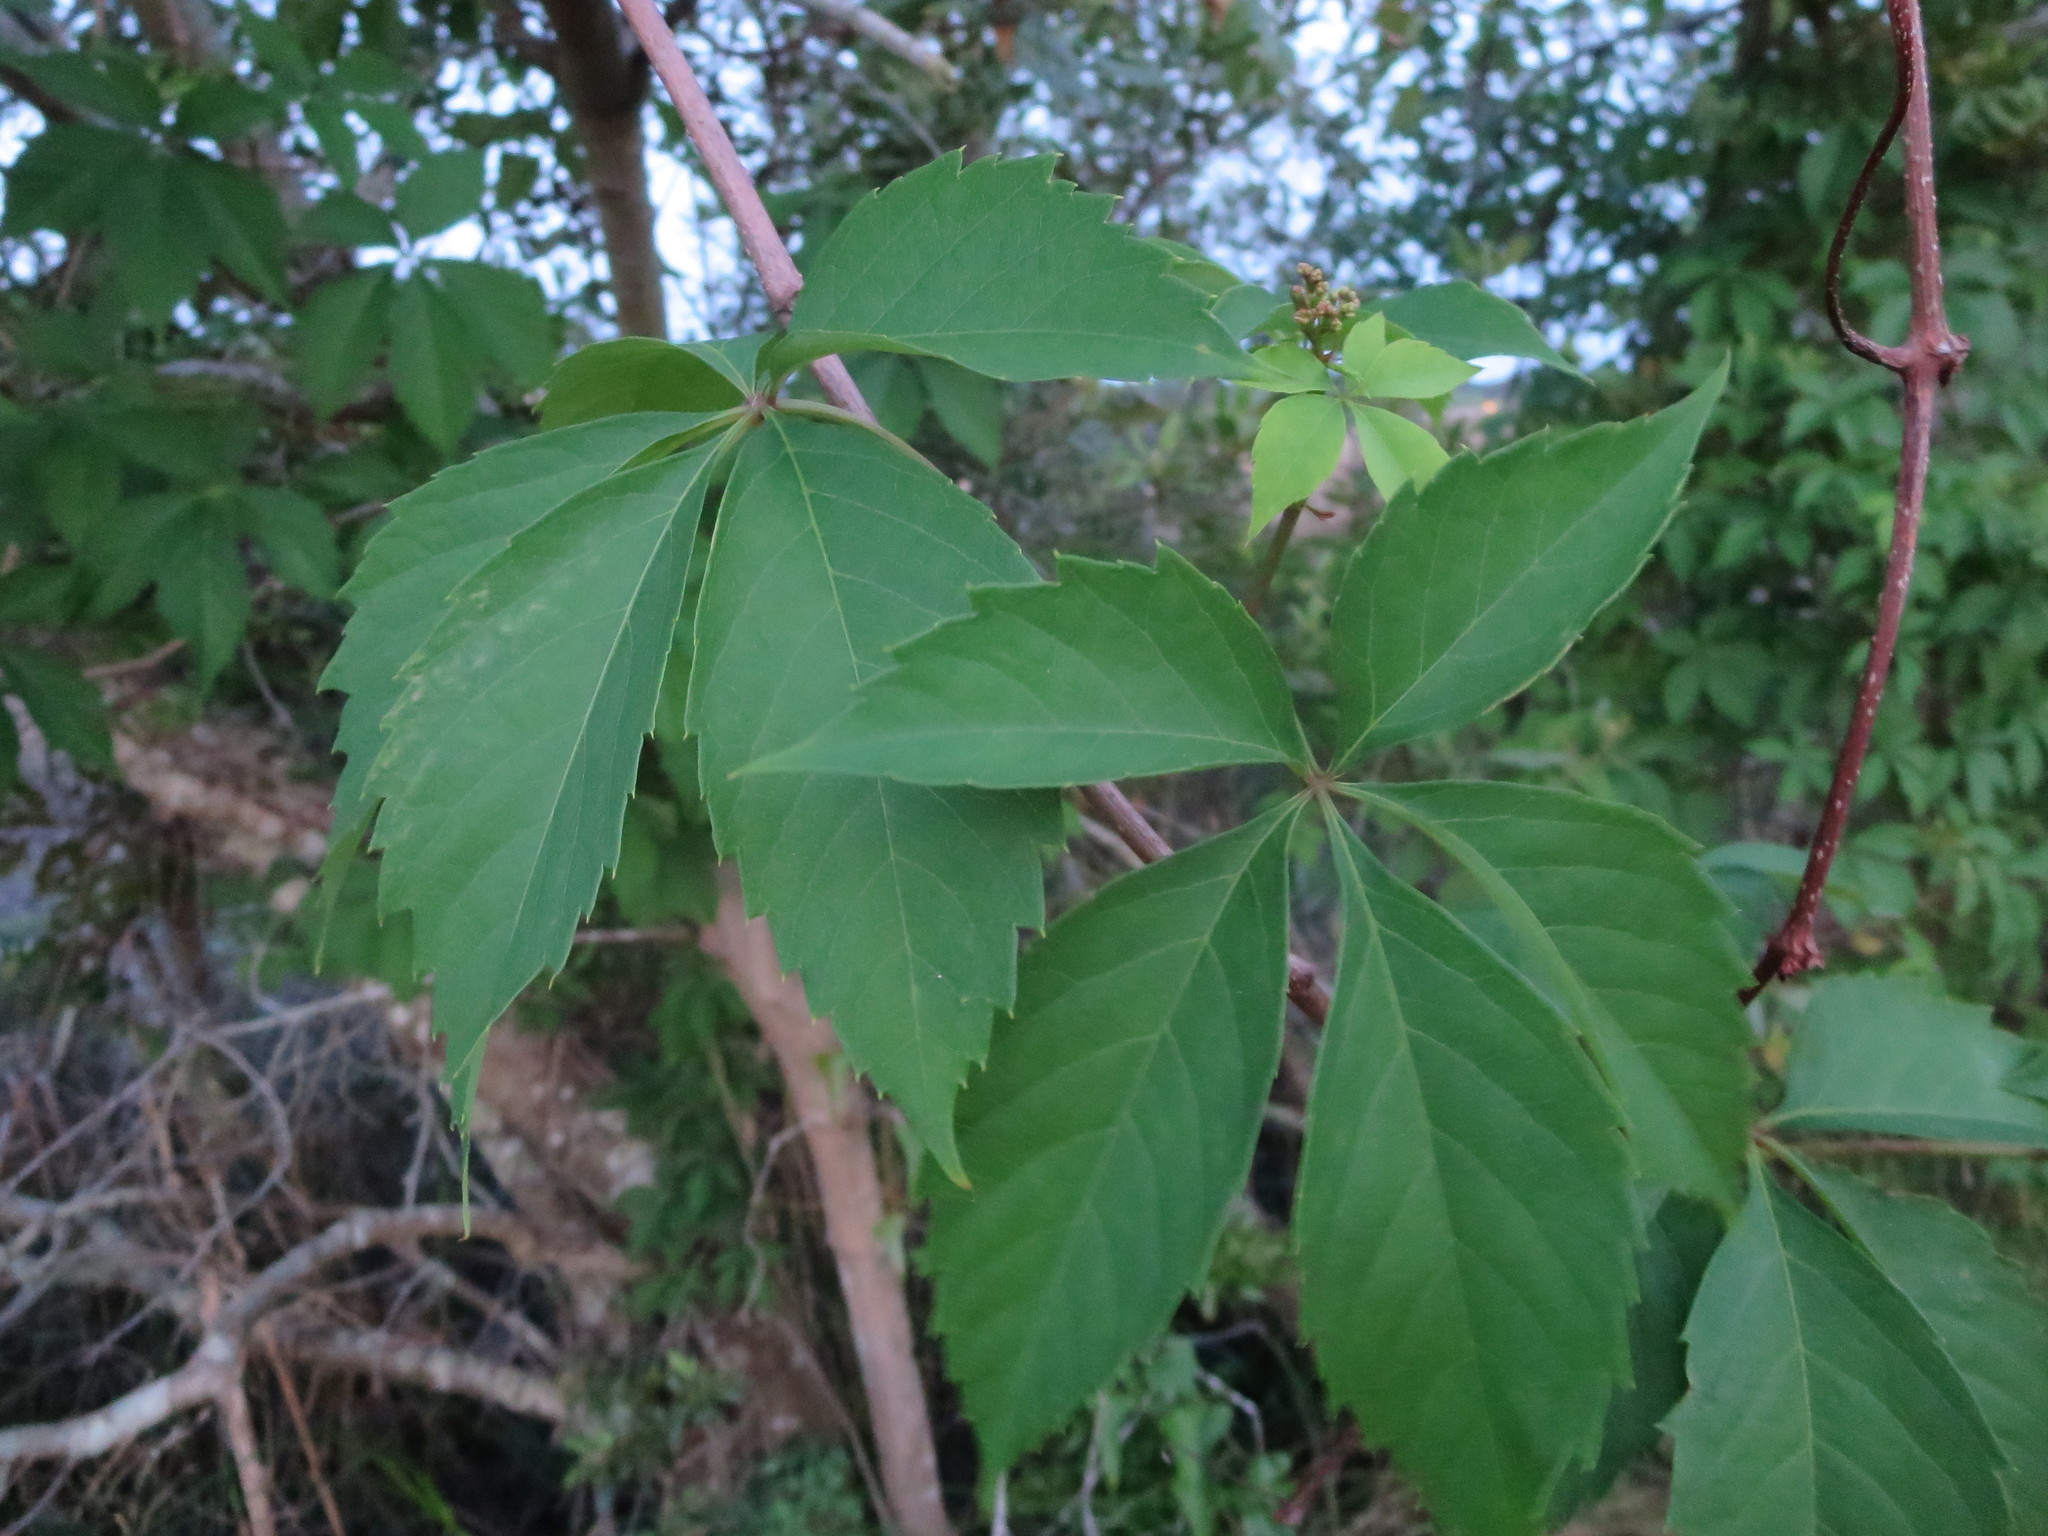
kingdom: Plantae
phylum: Tracheophyta
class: Magnoliopsida
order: Vitales
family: Vitaceae
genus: Parthenocissus
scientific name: Parthenocissus quinquefolia
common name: Virginia-creeper
